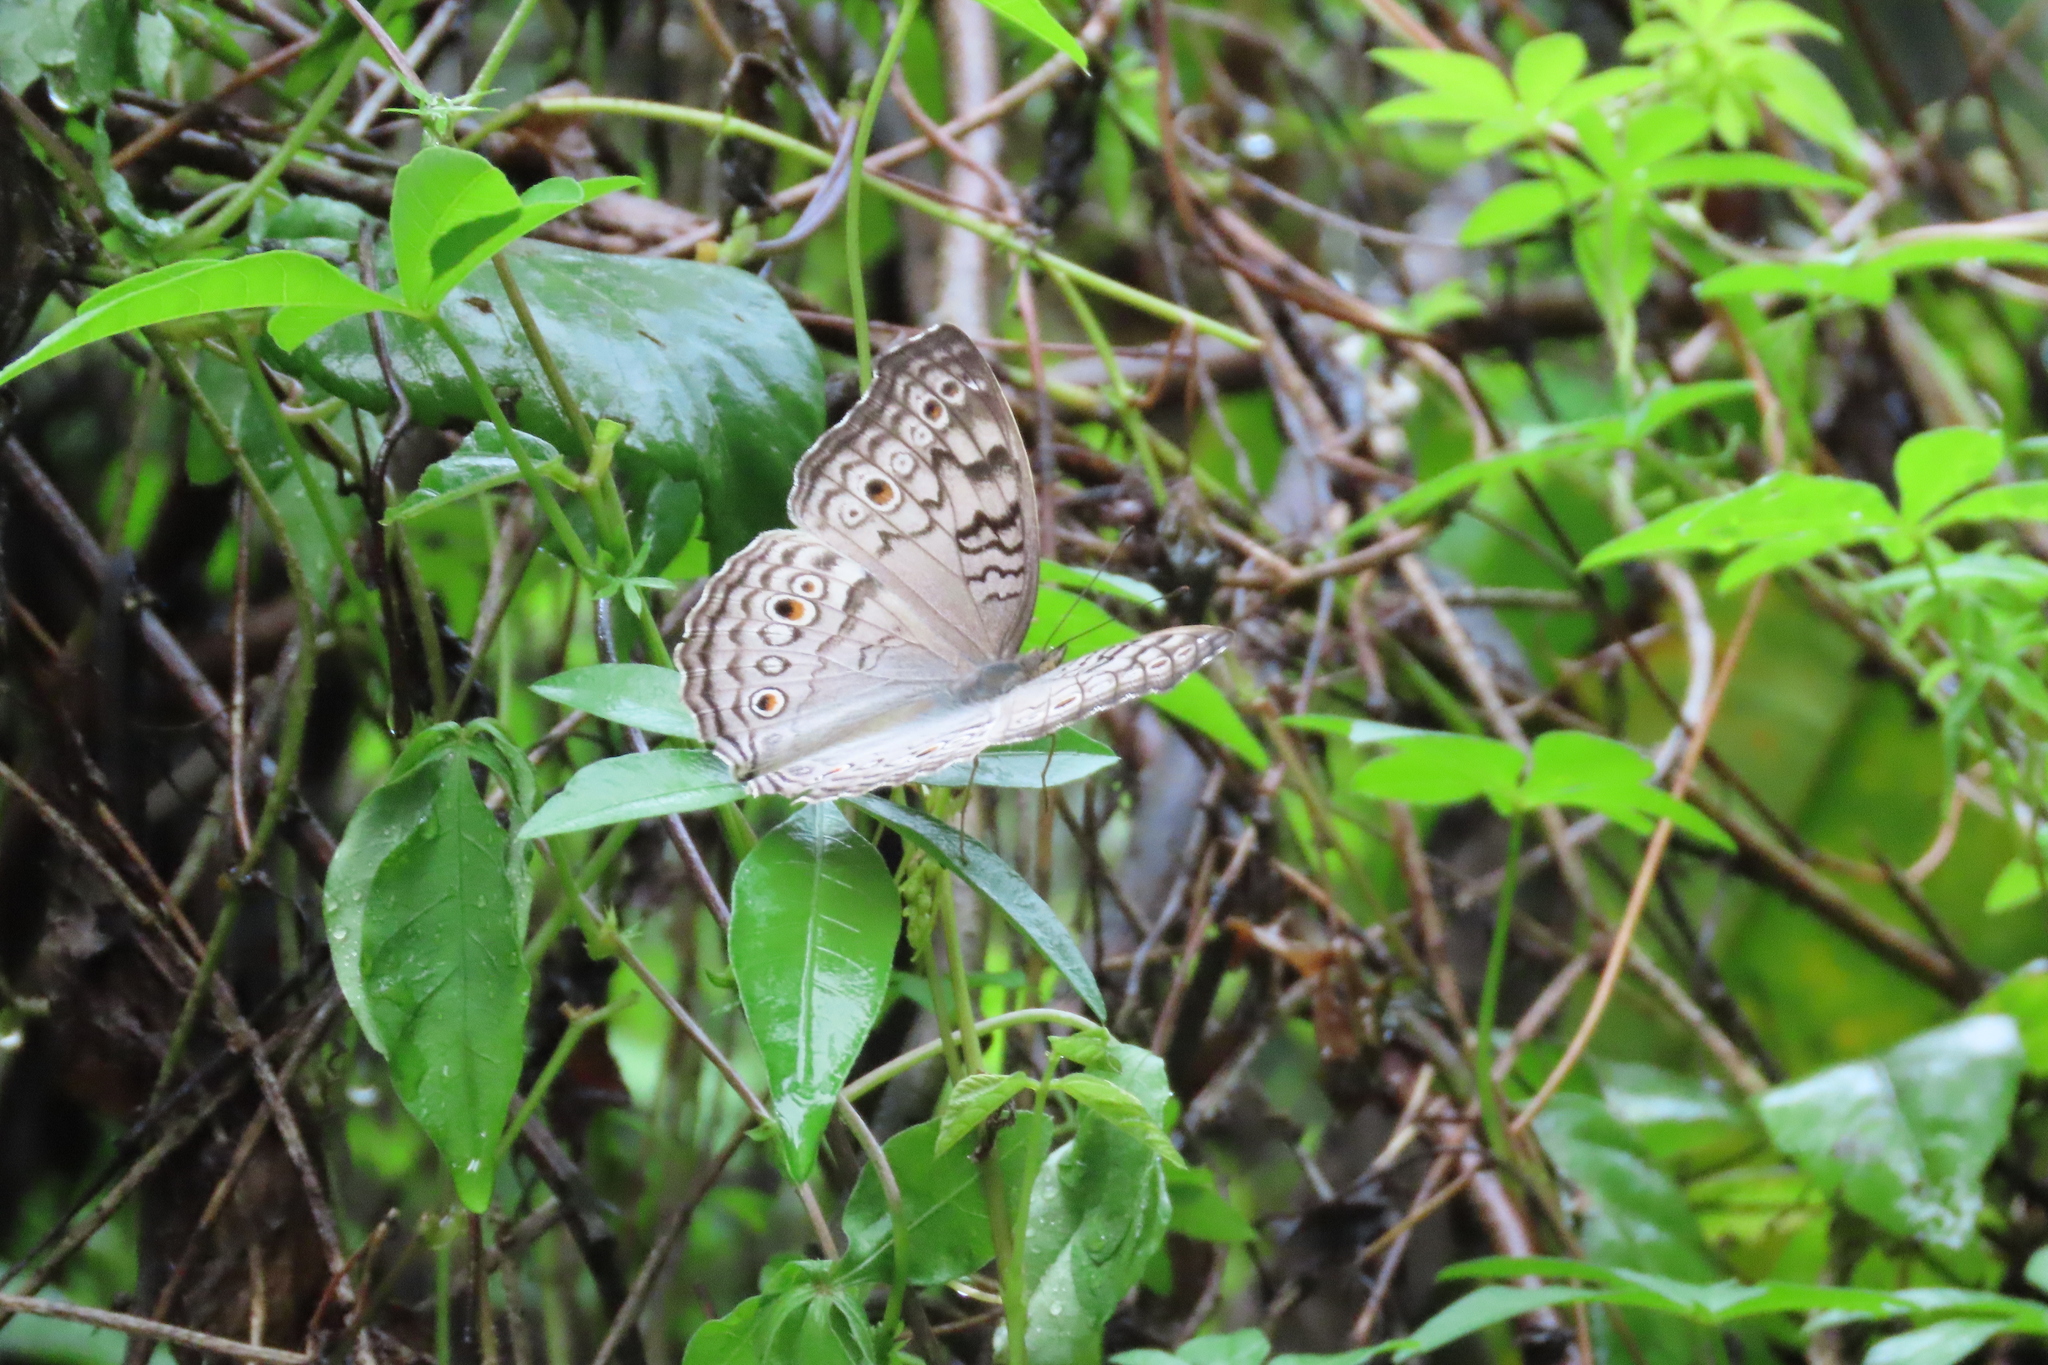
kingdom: Animalia
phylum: Arthropoda
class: Insecta
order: Lepidoptera
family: Nymphalidae
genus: Junonia
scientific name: Junonia atlites
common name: Grey pansy
